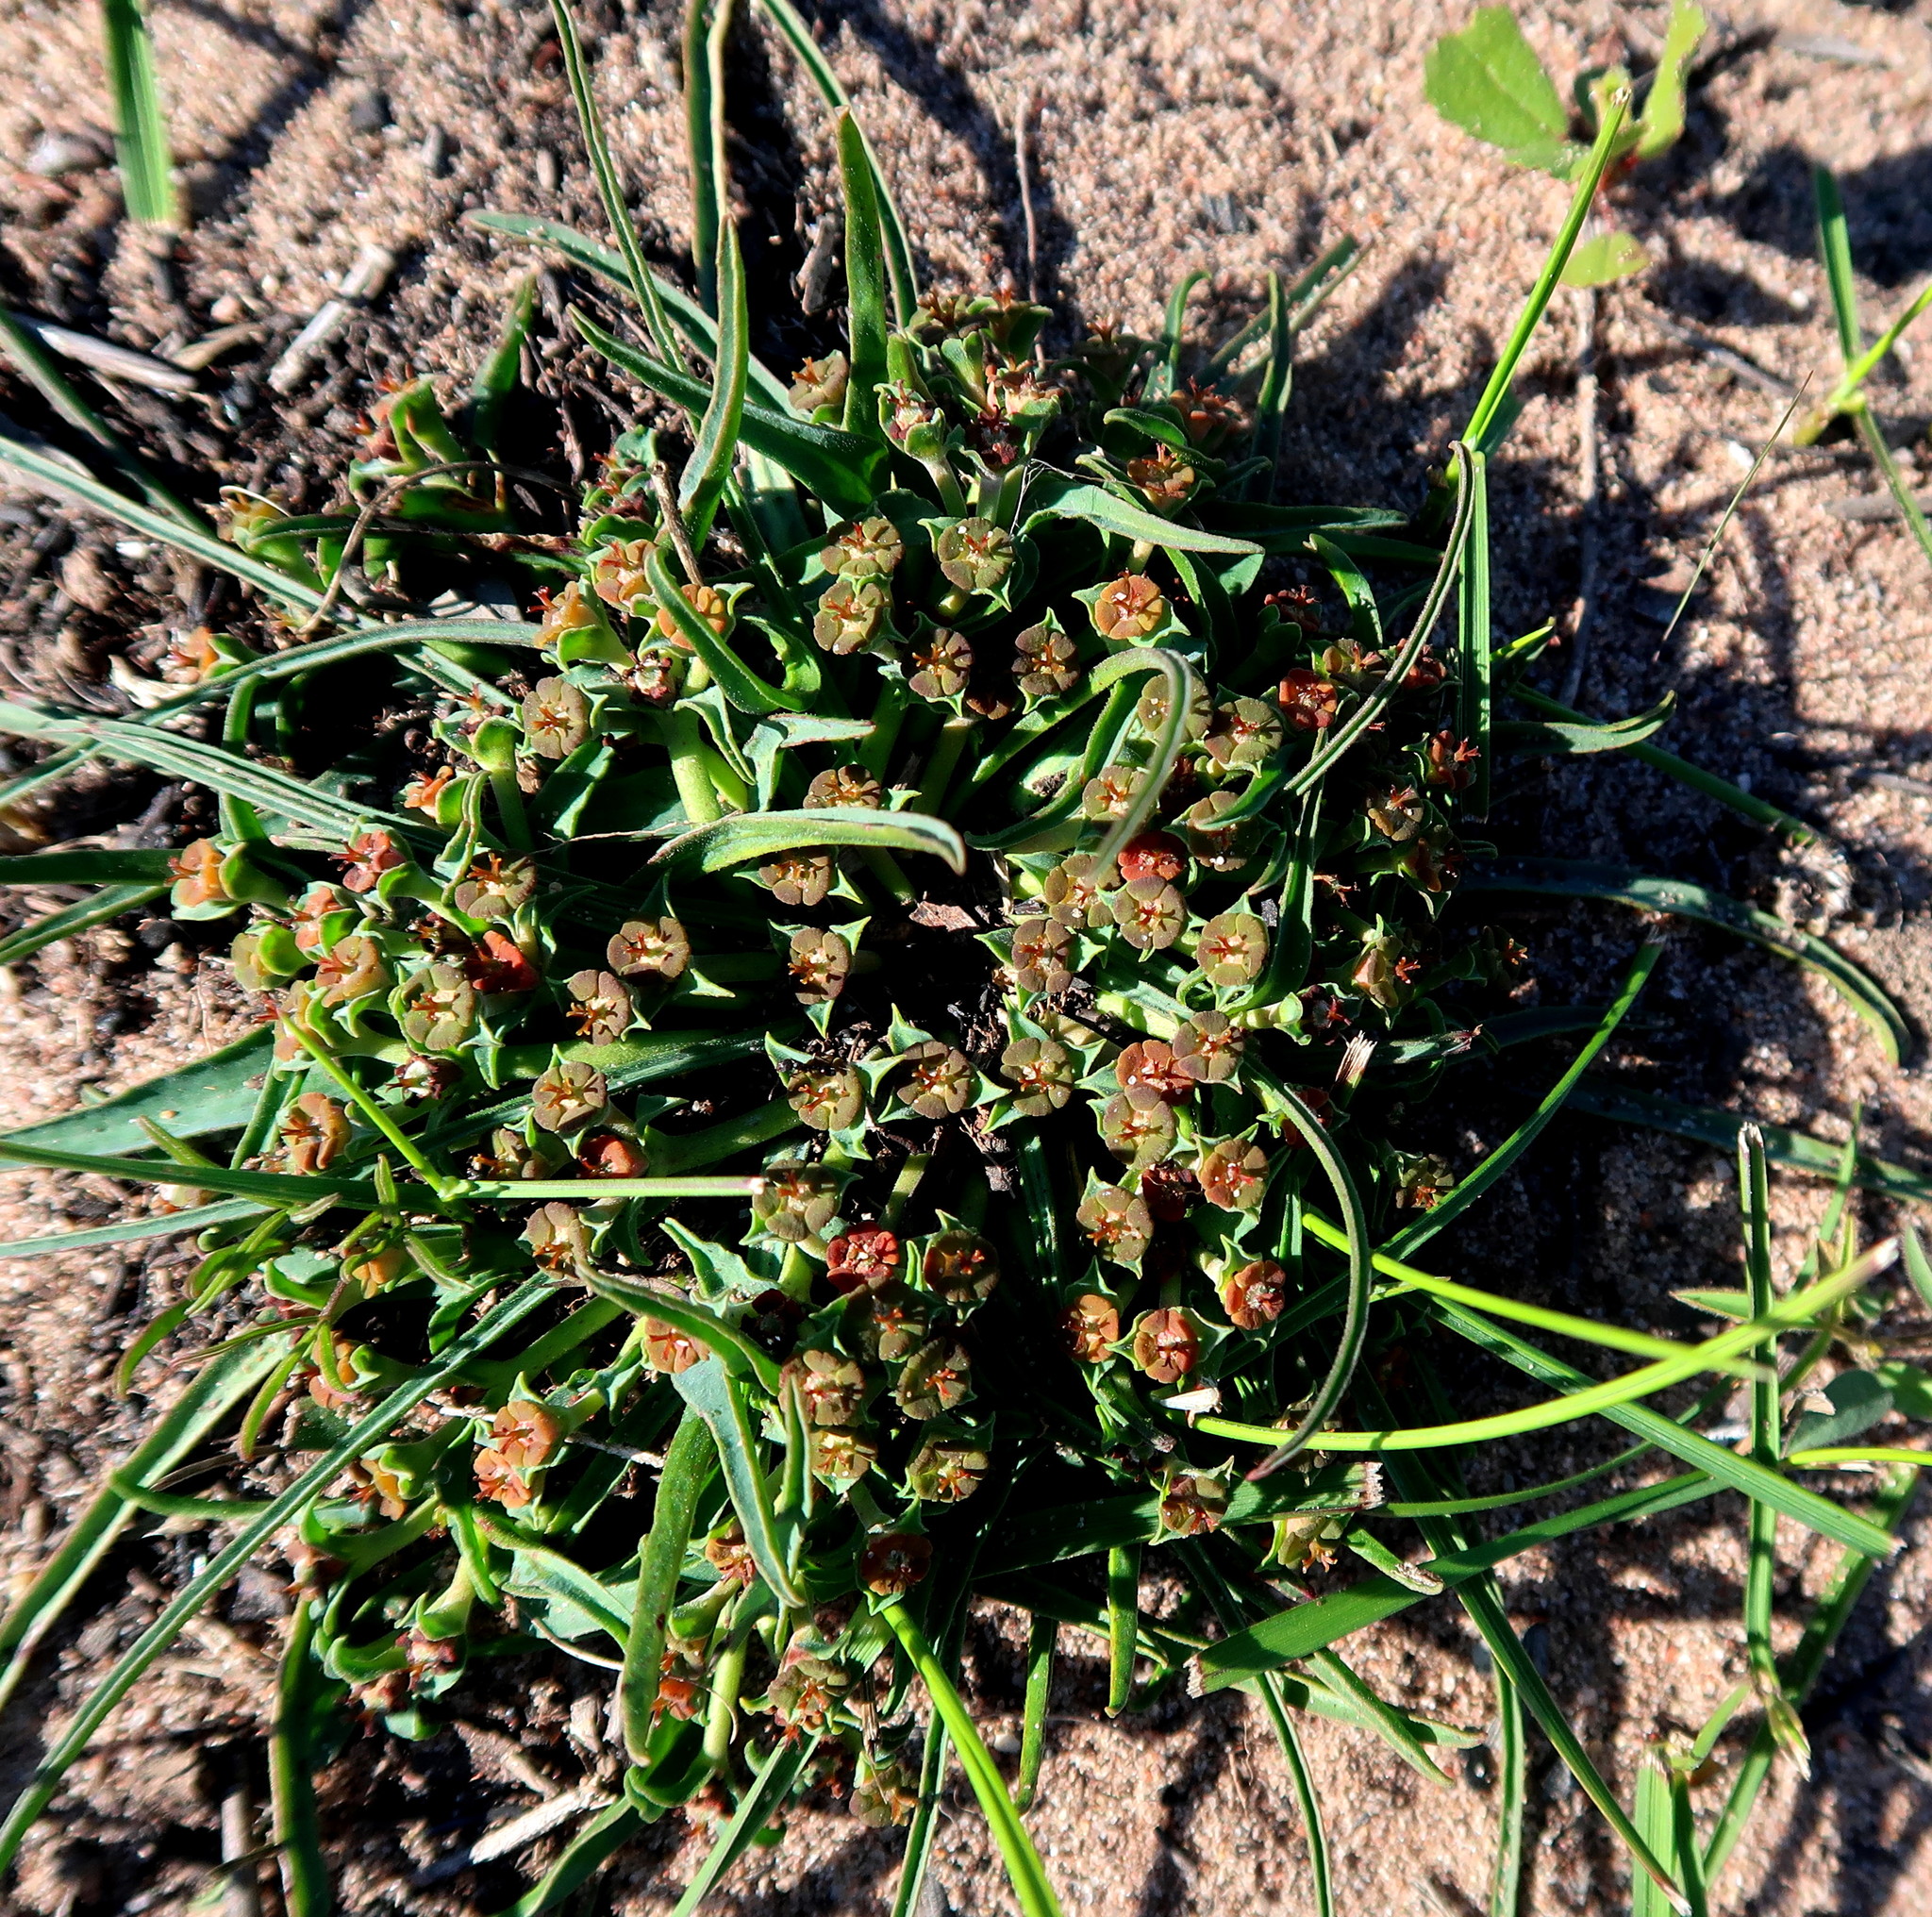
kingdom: Plantae
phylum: Tracheophyta
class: Magnoliopsida
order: Malpighiales
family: Euphorbiaceae
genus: Euphorbia
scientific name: Euphorbia silenifolia
